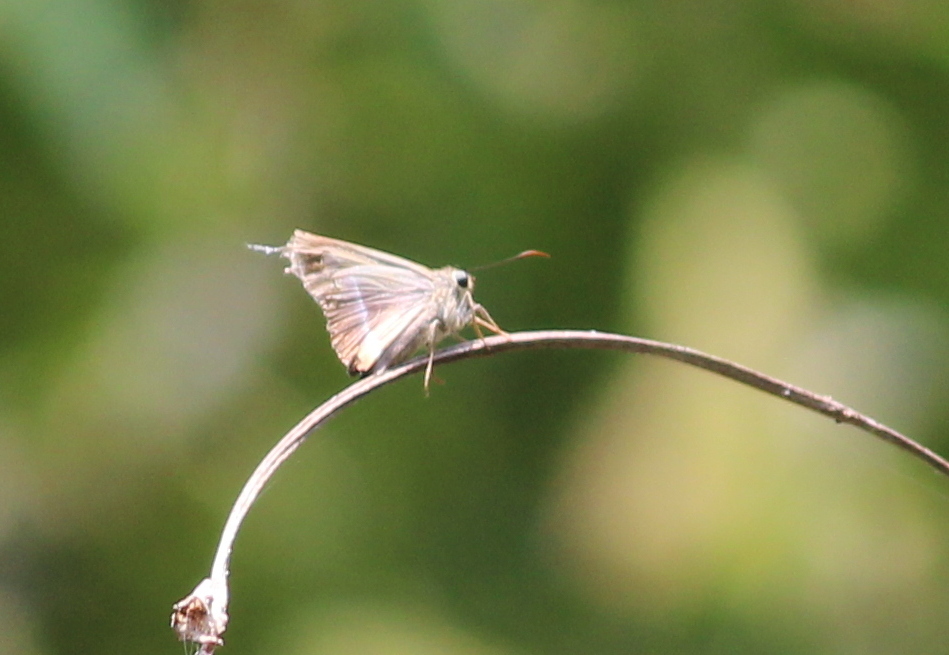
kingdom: Animalia
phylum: Arthropoda
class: Insecta
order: Lepidoptera
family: Hesperiidae
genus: Hasora
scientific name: Hasora chromus
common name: Common banded awl
